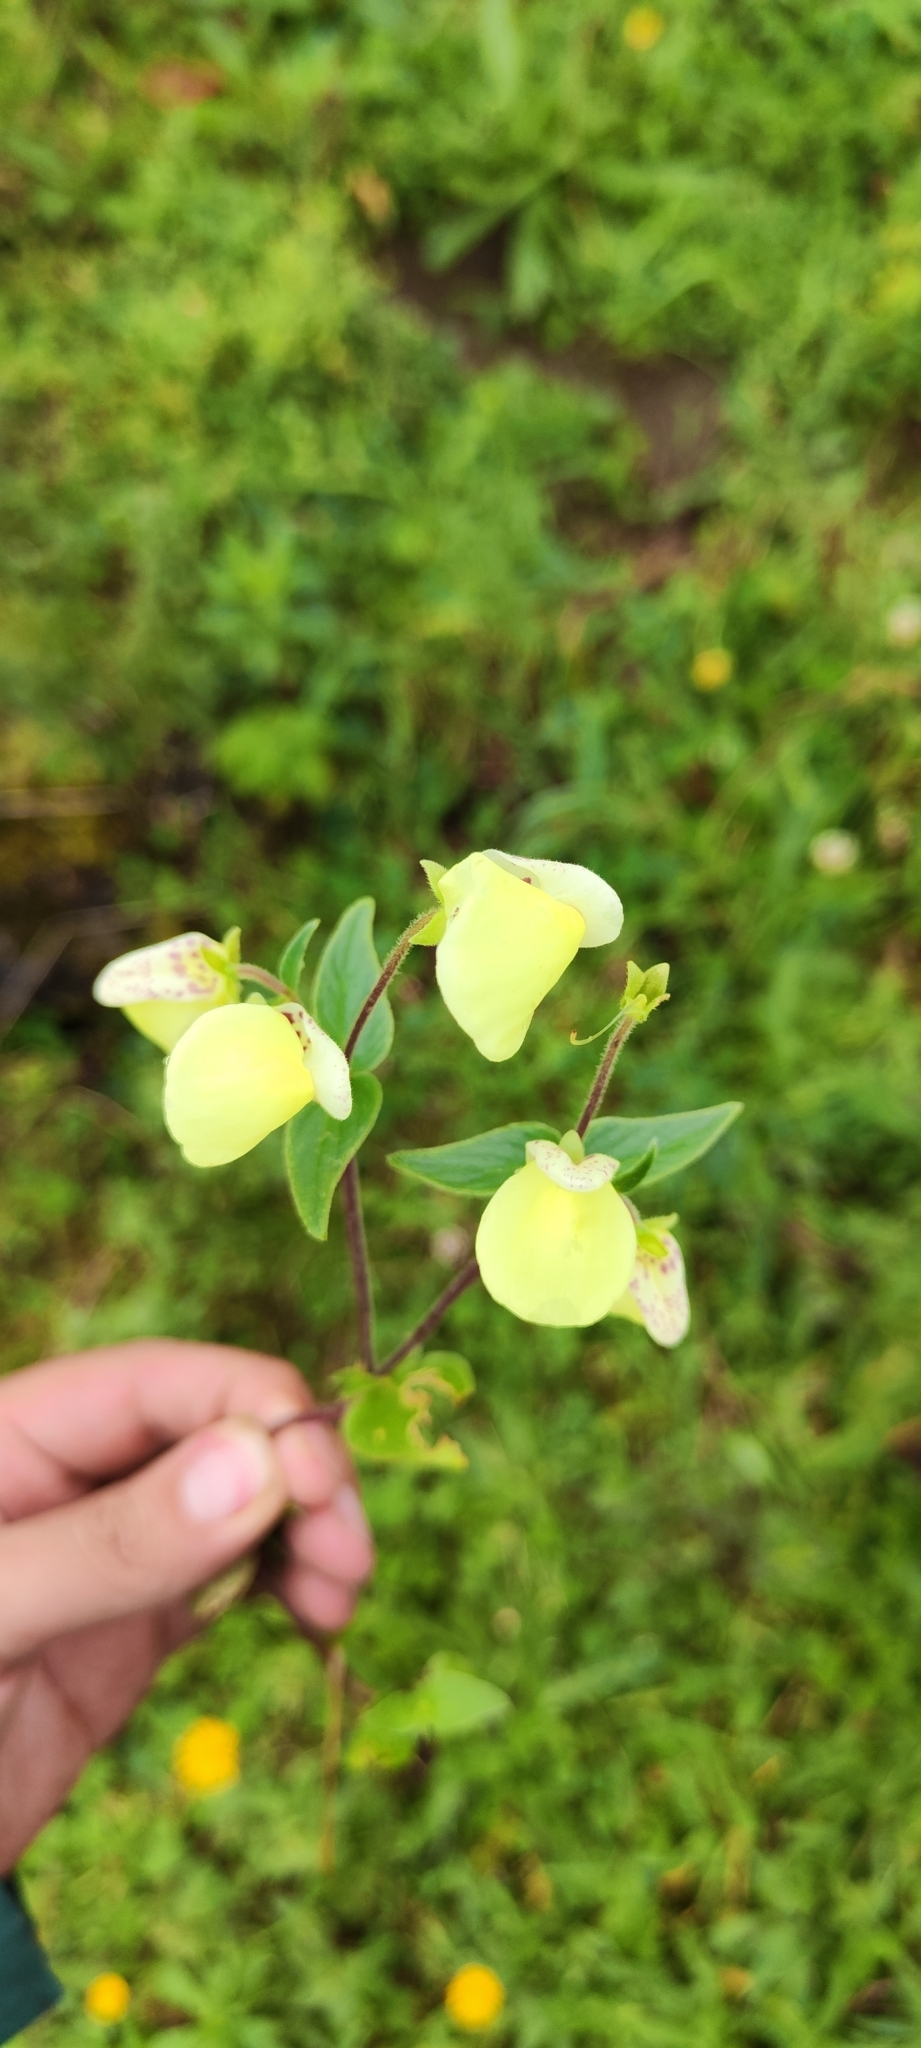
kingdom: Plantae
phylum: Tracheophyta
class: Magnoliopsida
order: Lamiales
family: Calceolariaceae
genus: Calceolaria
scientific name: Calceolaria utricularioides
